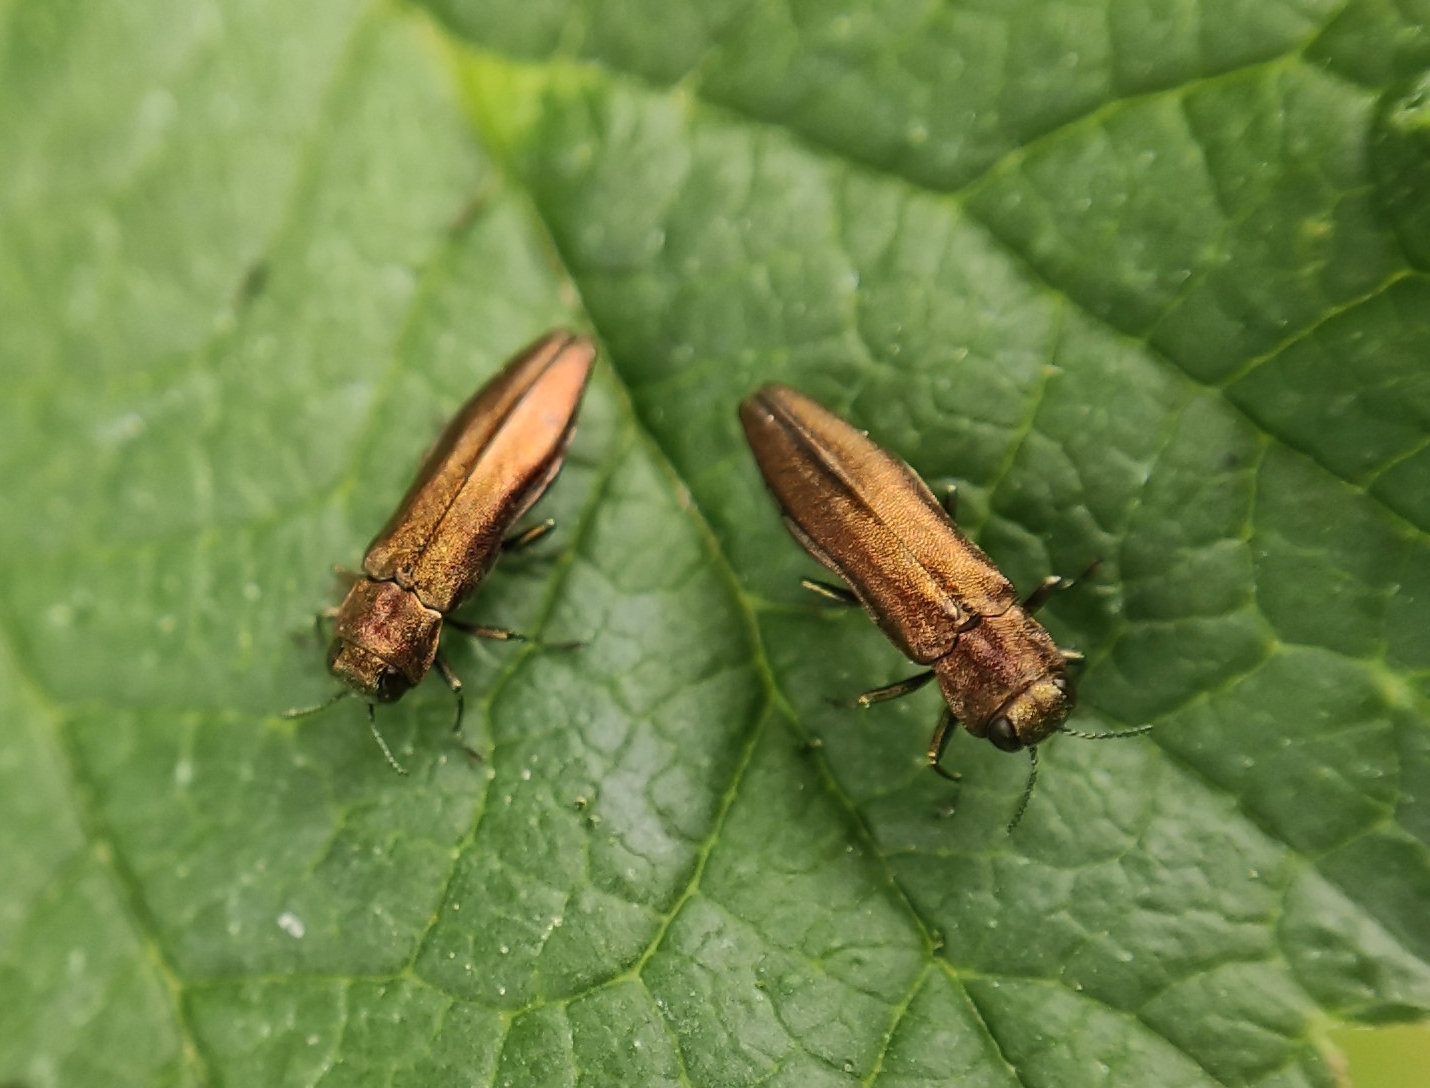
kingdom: Animalia
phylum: Arthropoda
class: Insecta
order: Coleoptera
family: Buprestidae
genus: Agrilus
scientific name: Agrilus ribesi
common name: Currant stem girdler
